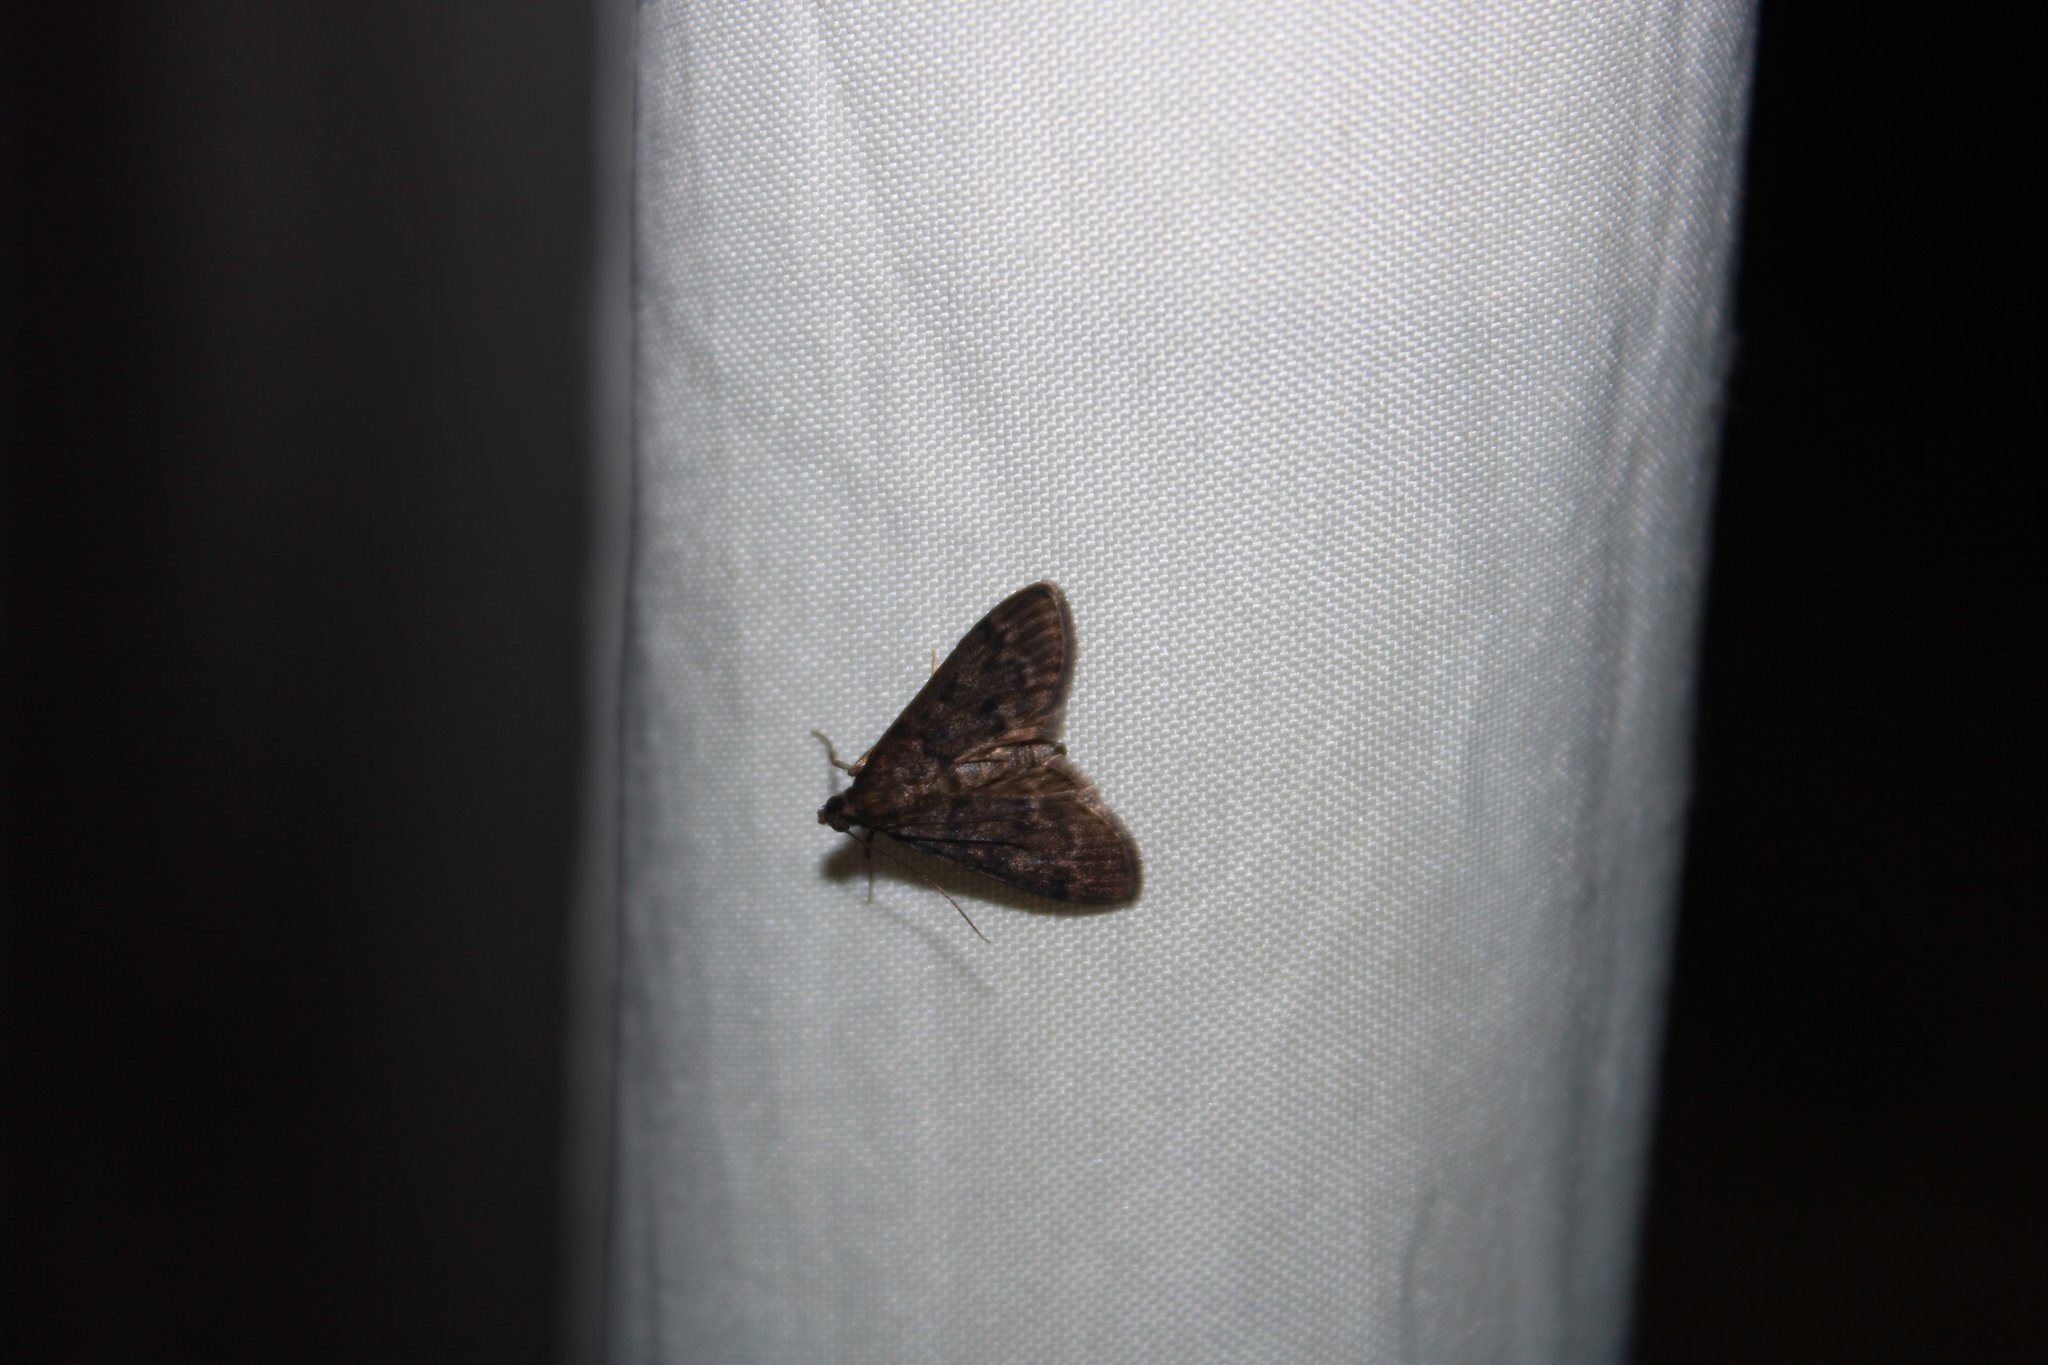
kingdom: Animalia
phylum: Arthropoda
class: Insecta
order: Lepidoptera
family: Crambidae
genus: Piletocera
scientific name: Piletocera bufalis
